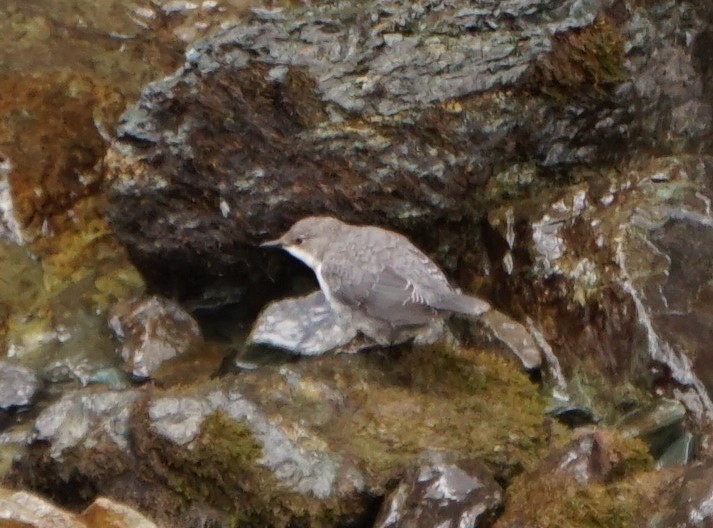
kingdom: Animalia
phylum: Chordata
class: Aves
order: Passeriformes
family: Cinclidae
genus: Cinclus
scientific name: Cinclus cinclus
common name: White-throated dipper
